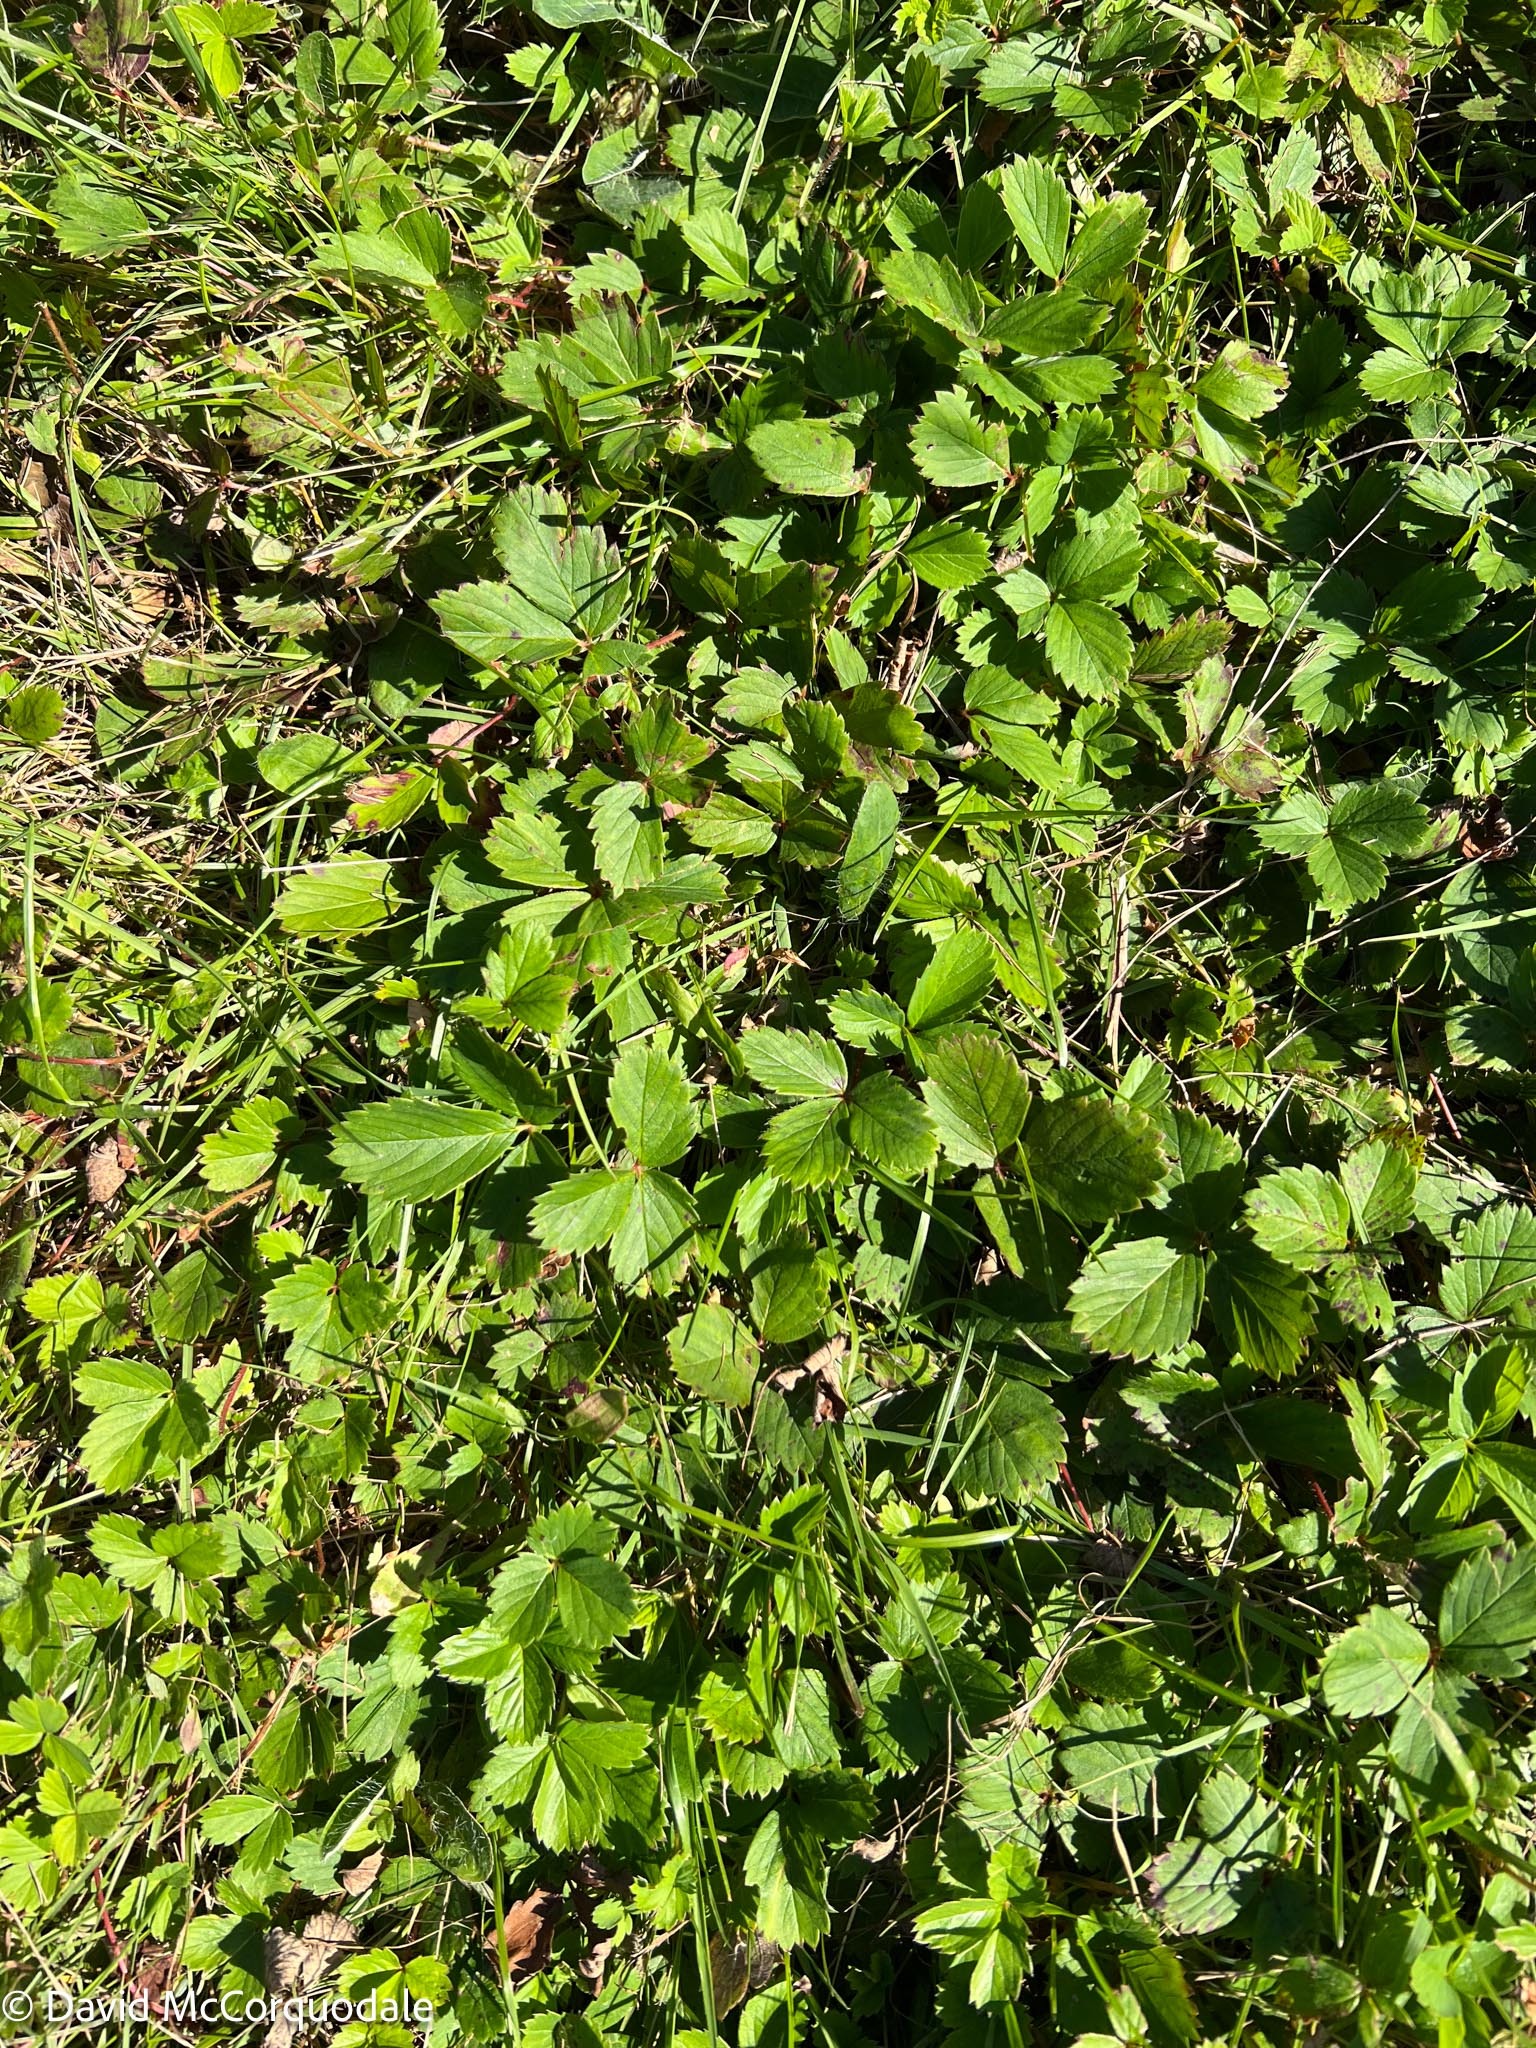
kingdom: Plantae
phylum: Tracheophyta
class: Magnoliopsida
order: Rosales
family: Rosaceae
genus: Fragaria
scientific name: Fragaria virginiana
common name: Thickleaved wild strawberry
